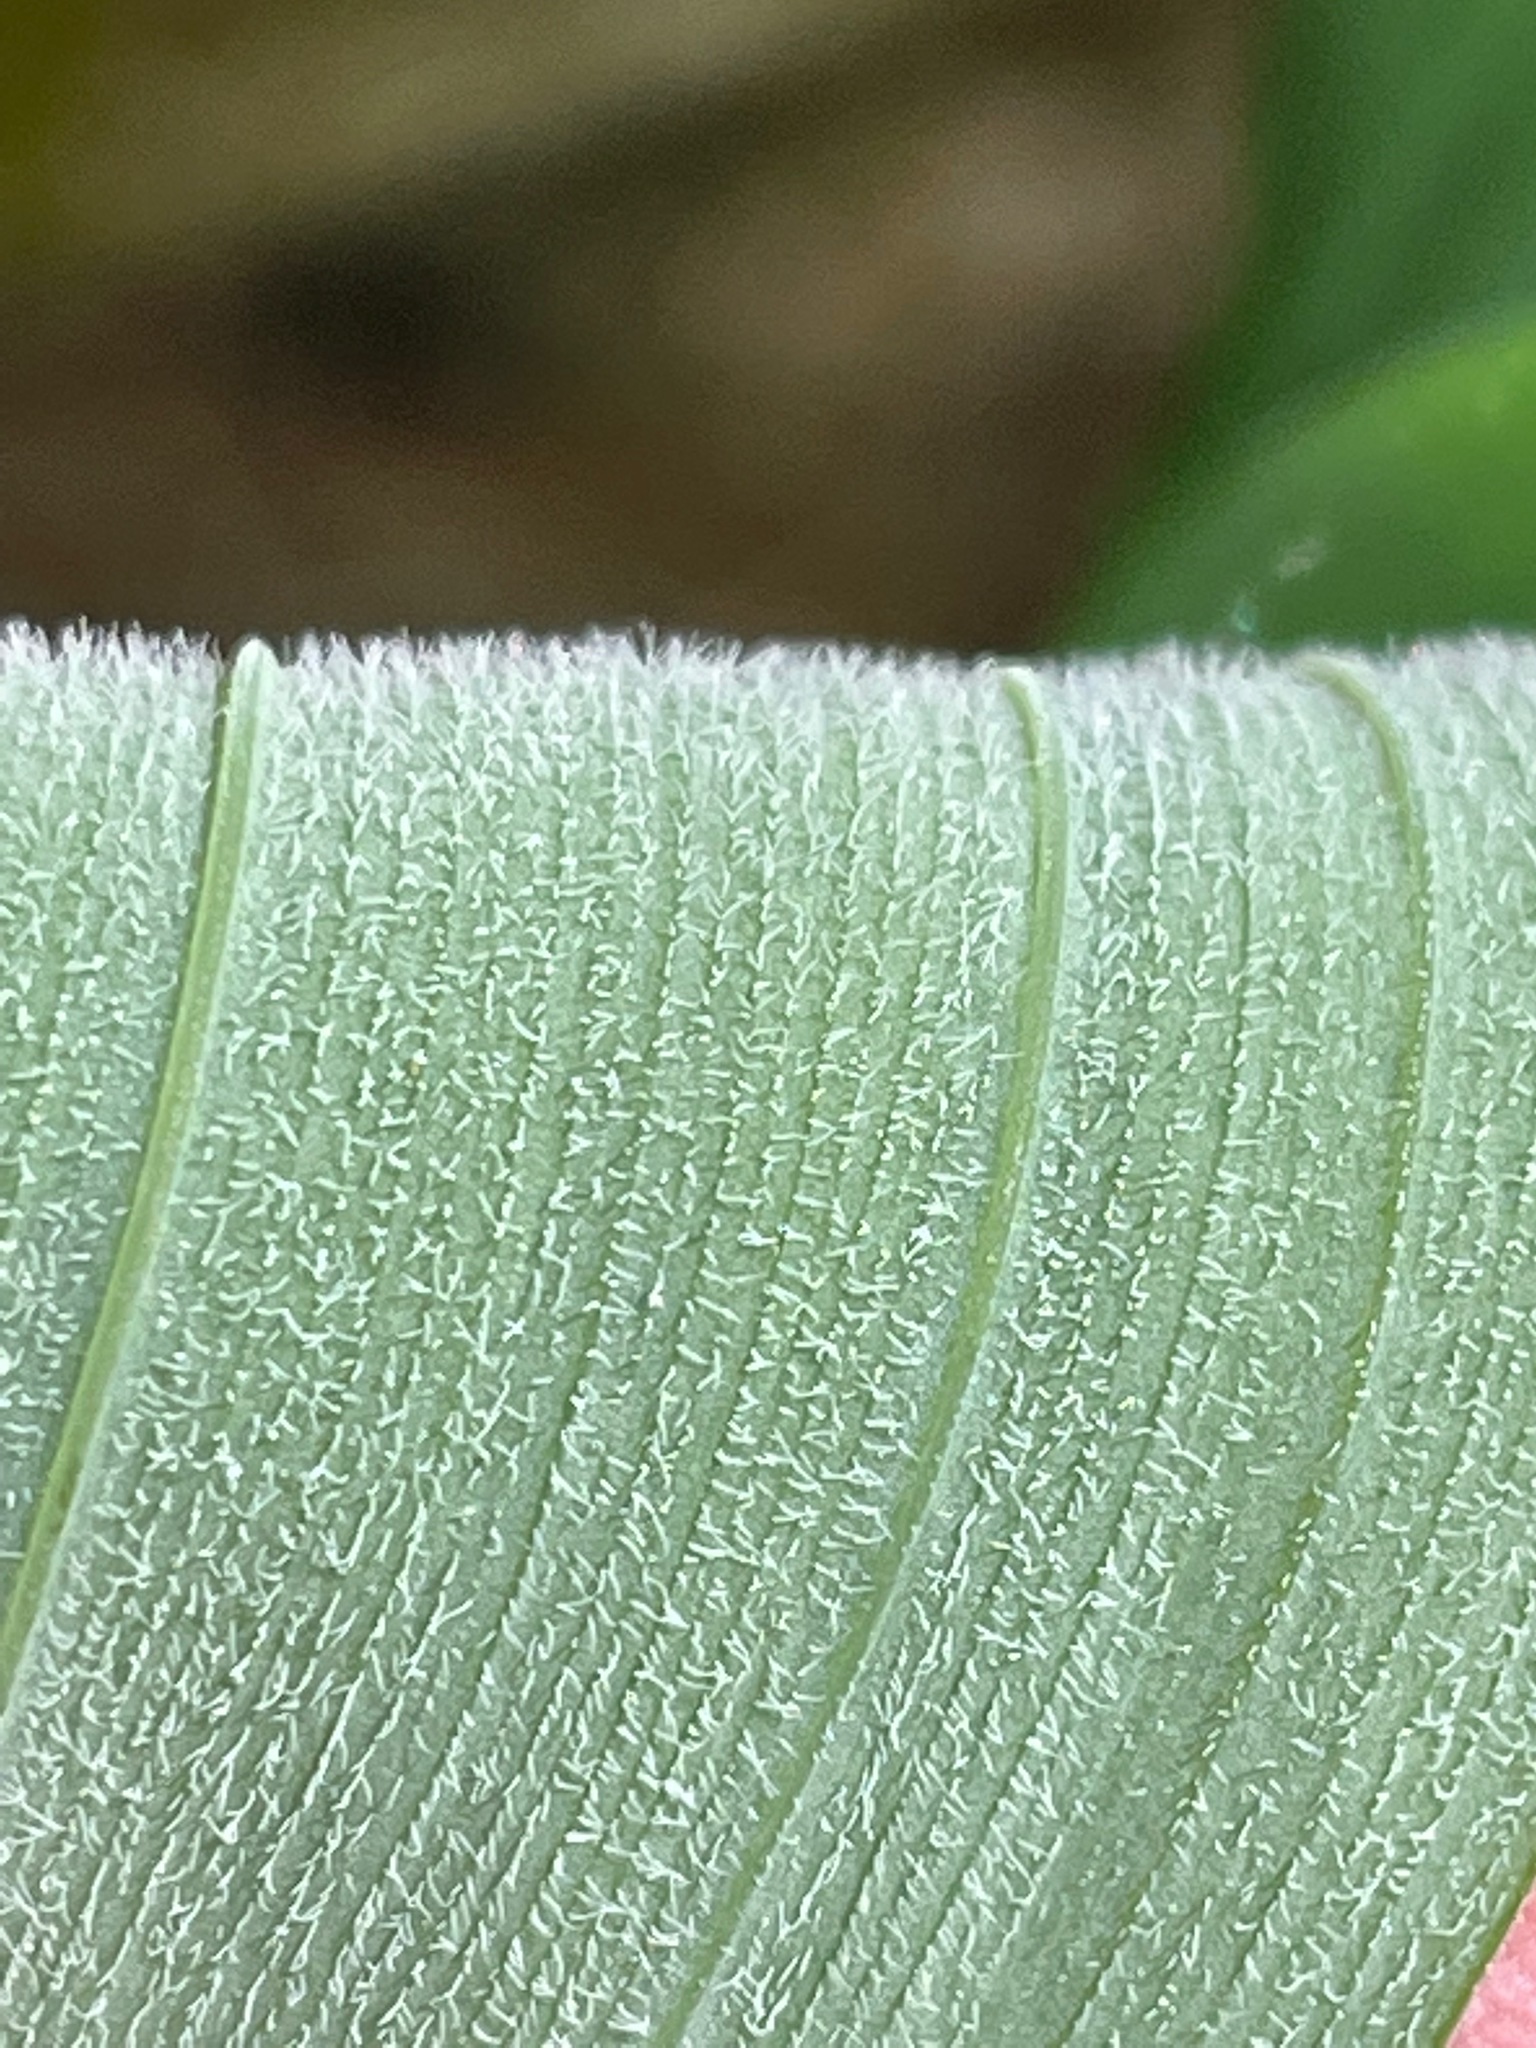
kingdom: Plantae
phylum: Tracheophyta
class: Liliopsida
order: Asparagales
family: Asparagaceae
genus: Polygonatum
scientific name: Polygonatum pubescens
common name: Downy solomon's seal
